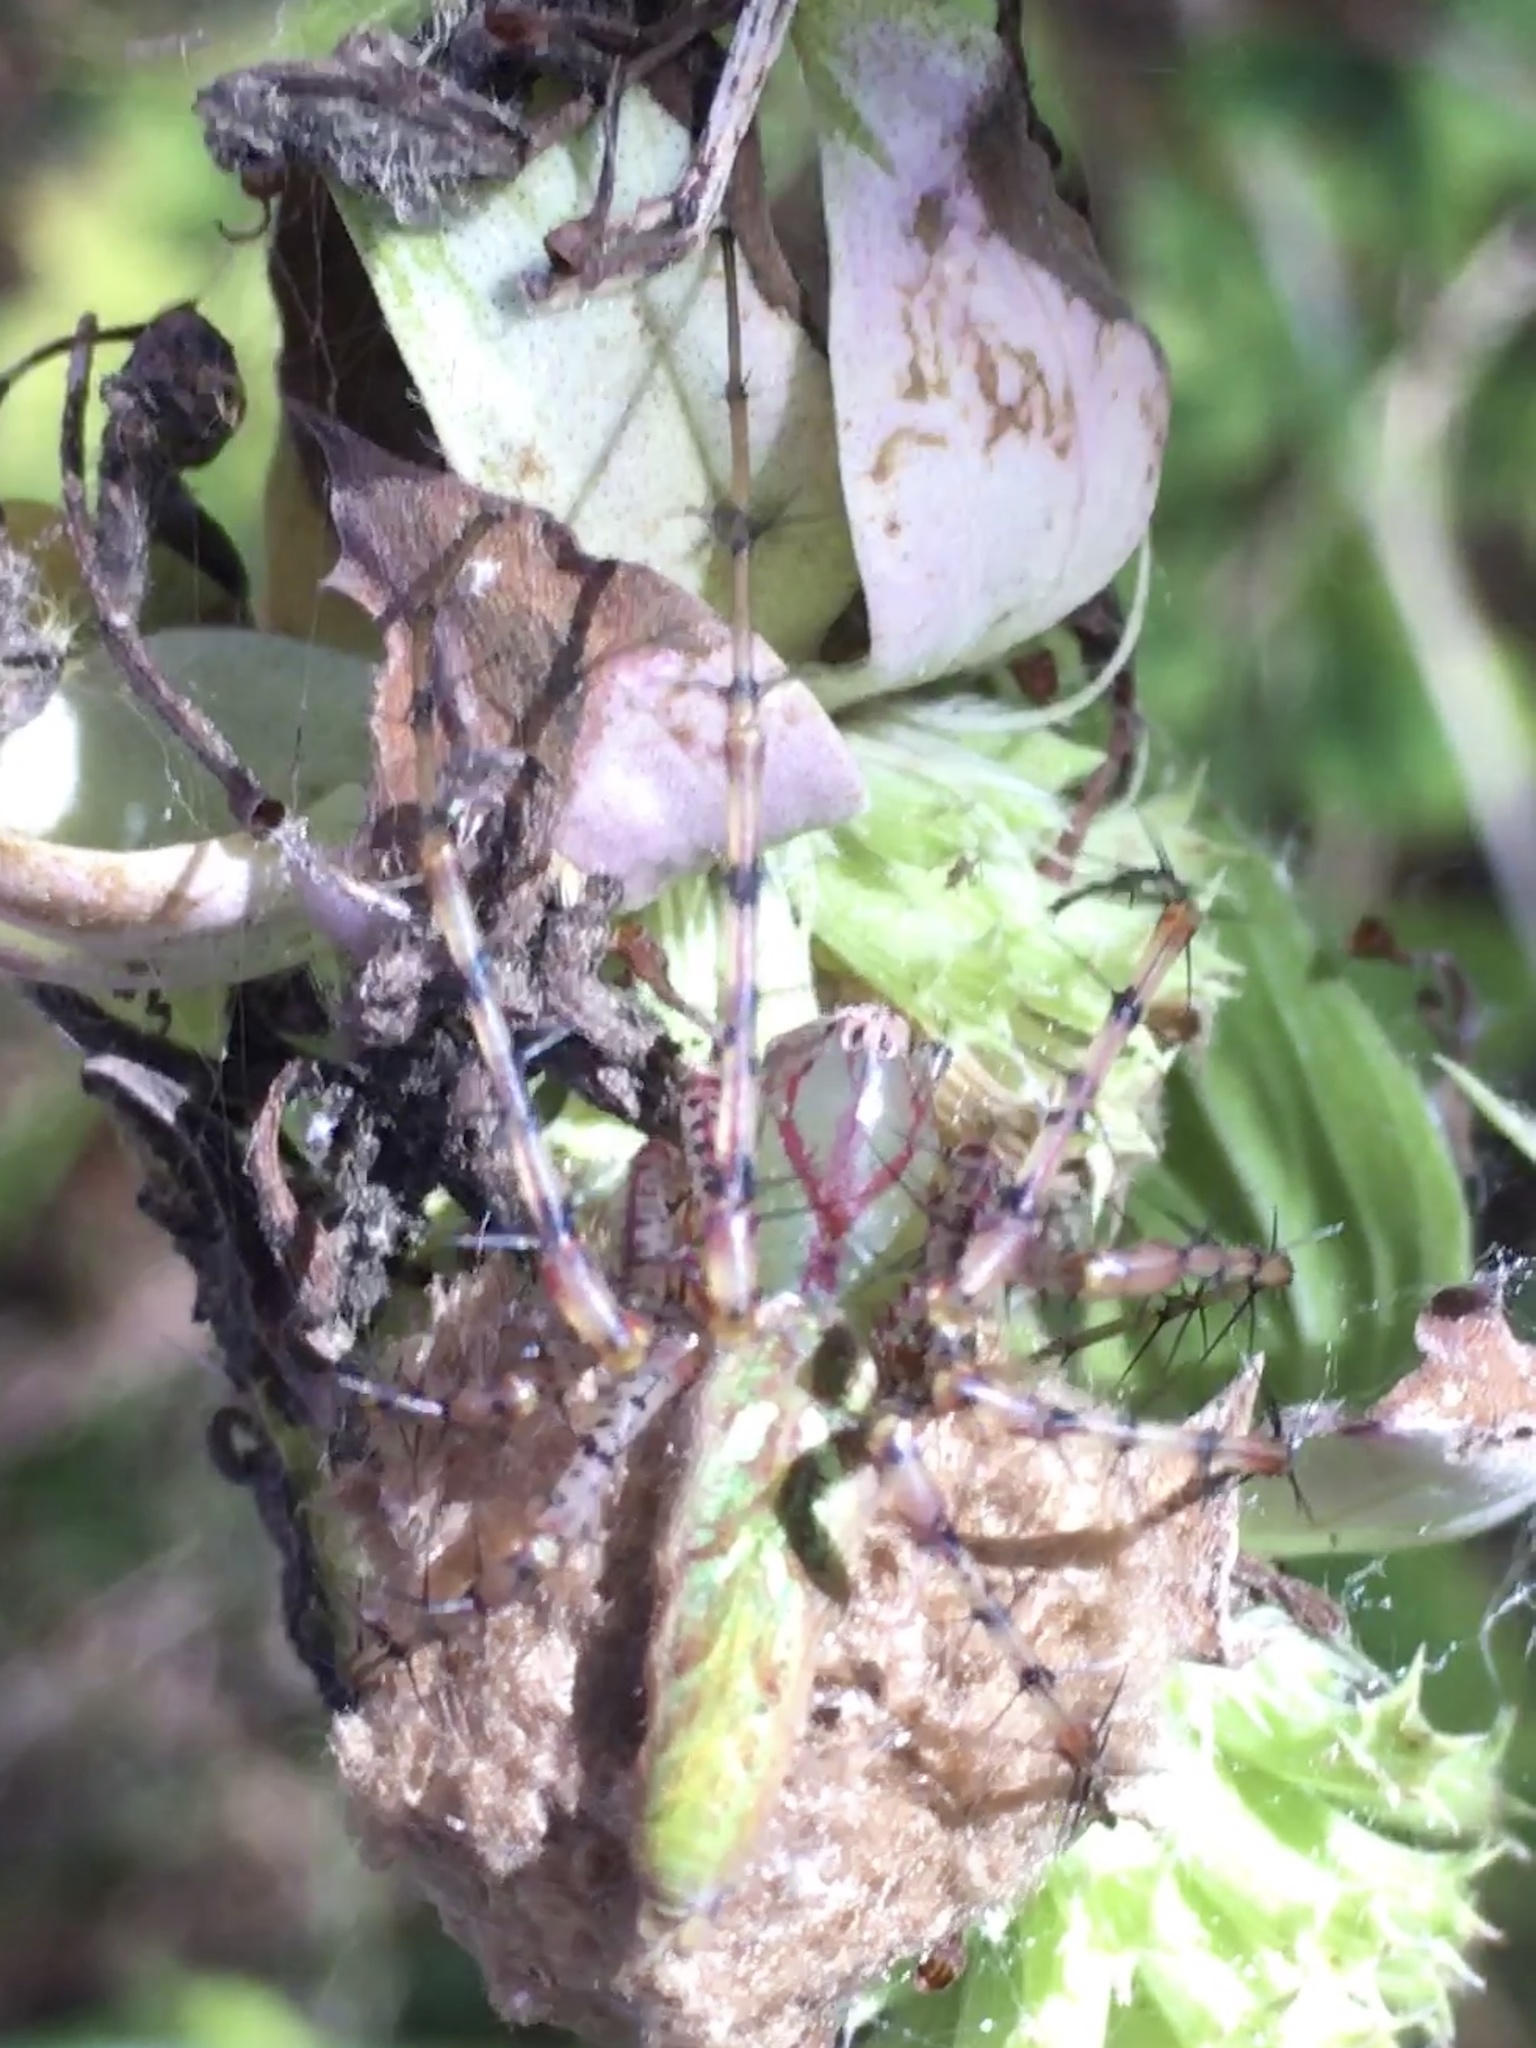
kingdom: Animalia
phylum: Arthropoda
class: Arachnida
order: Araneae
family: Oxyopidae
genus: Peucetia
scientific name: Peucetia viridans
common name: Lynx spiders
